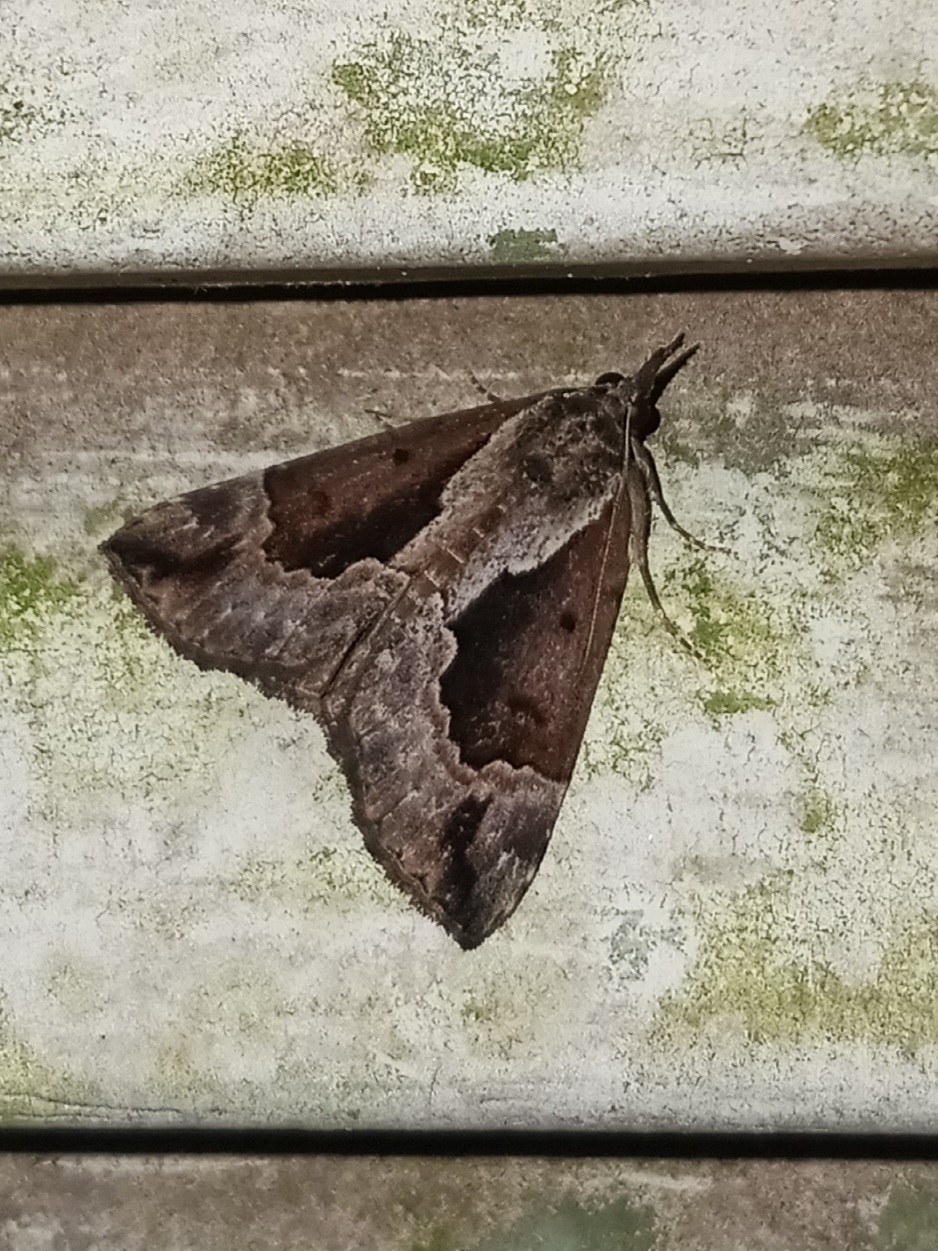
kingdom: Animalia
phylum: Arthropoda
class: Insecta
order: Lepidoptera
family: Erebidae
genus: Hypena
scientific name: Hypena baltimoralis
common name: Baltimore snout
